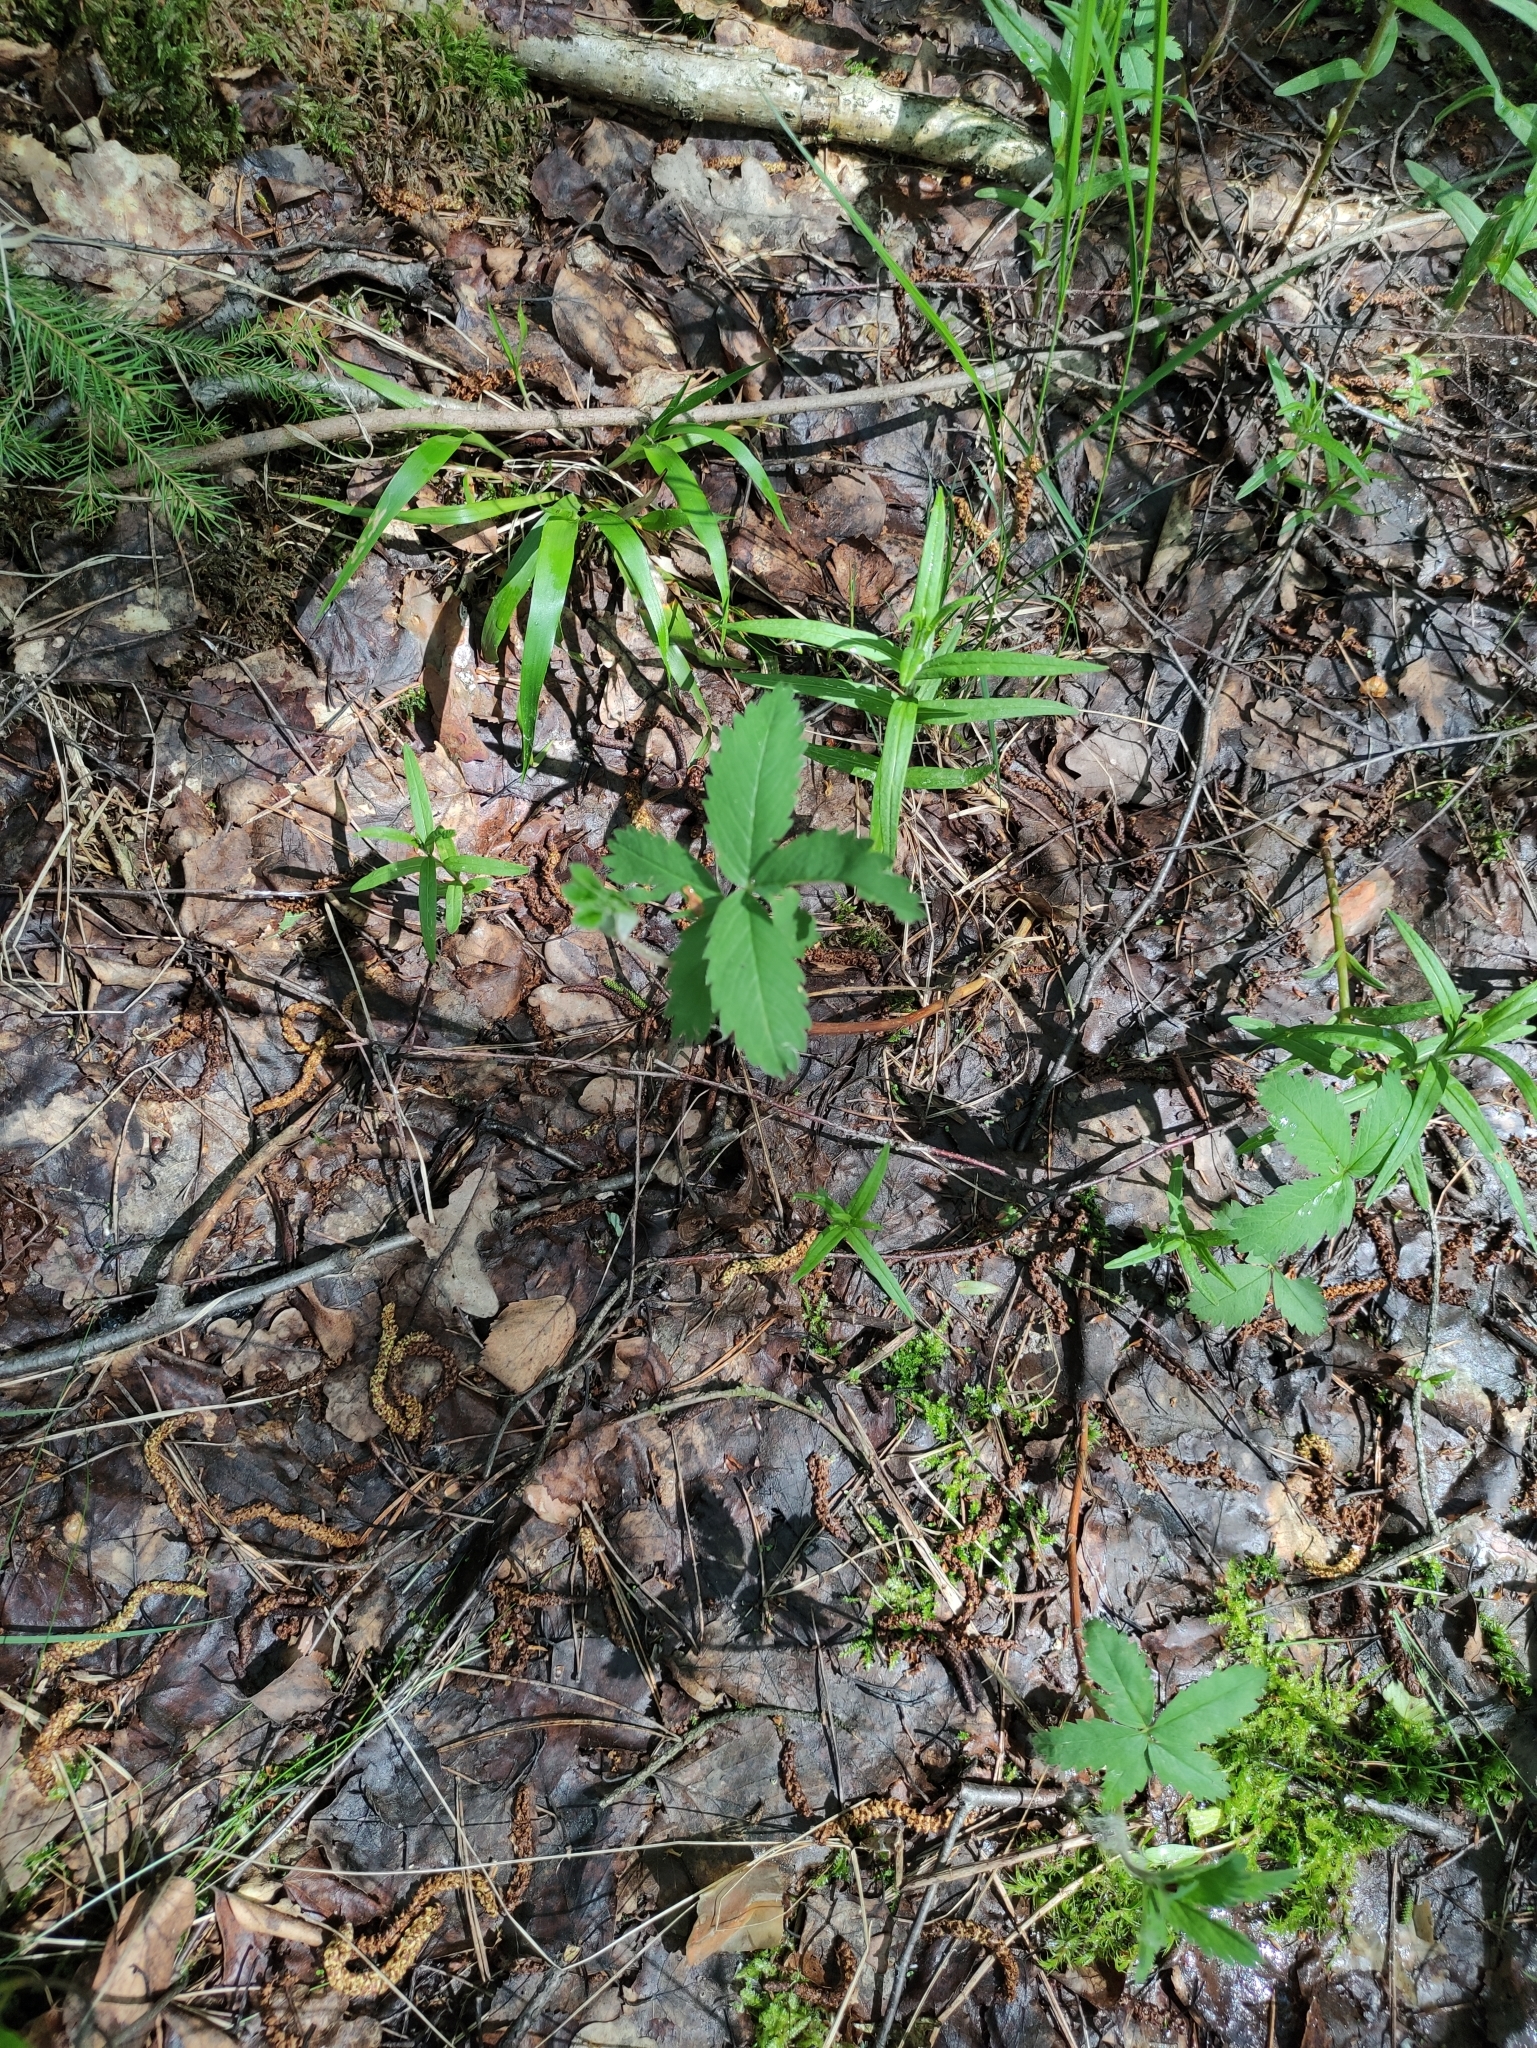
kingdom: Plantae
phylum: Tracheophyta
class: Magnoliopsida
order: Rosales
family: Rosaceae
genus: Comarum
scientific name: Comarum palustre
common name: Marsh cinquefoil
